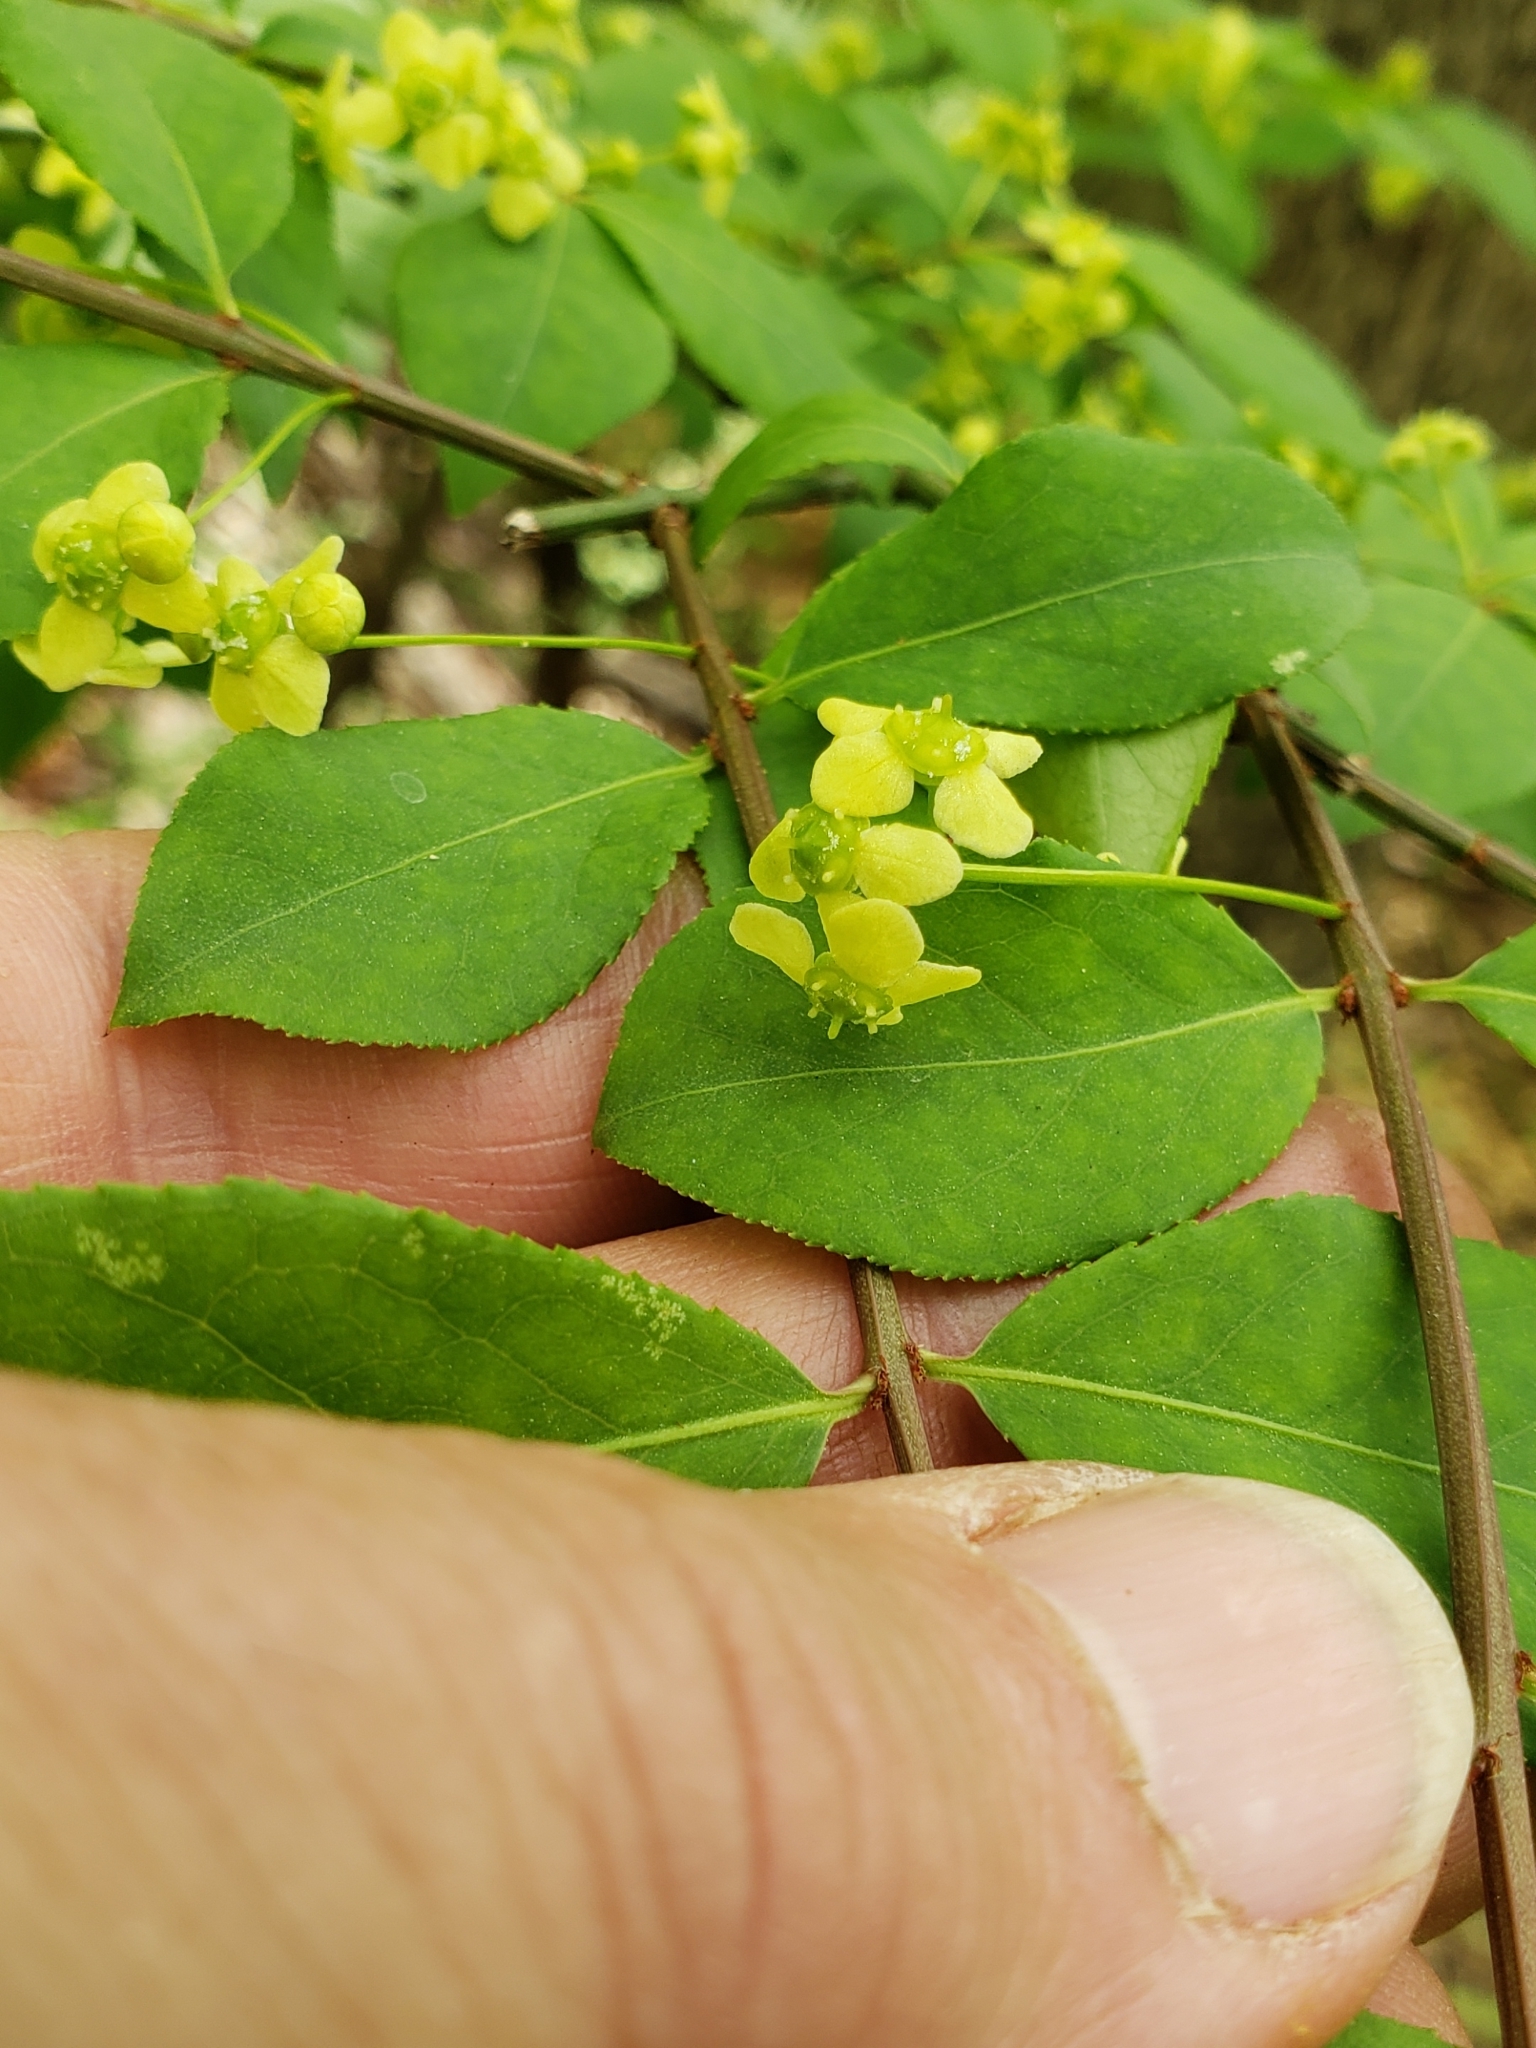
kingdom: Plantae
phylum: Tracheophyta
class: Magnoliopsida
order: Celastrales
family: Celastraceae
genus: Euonymus
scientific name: Euonymus alatus
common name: Winged euonymus
